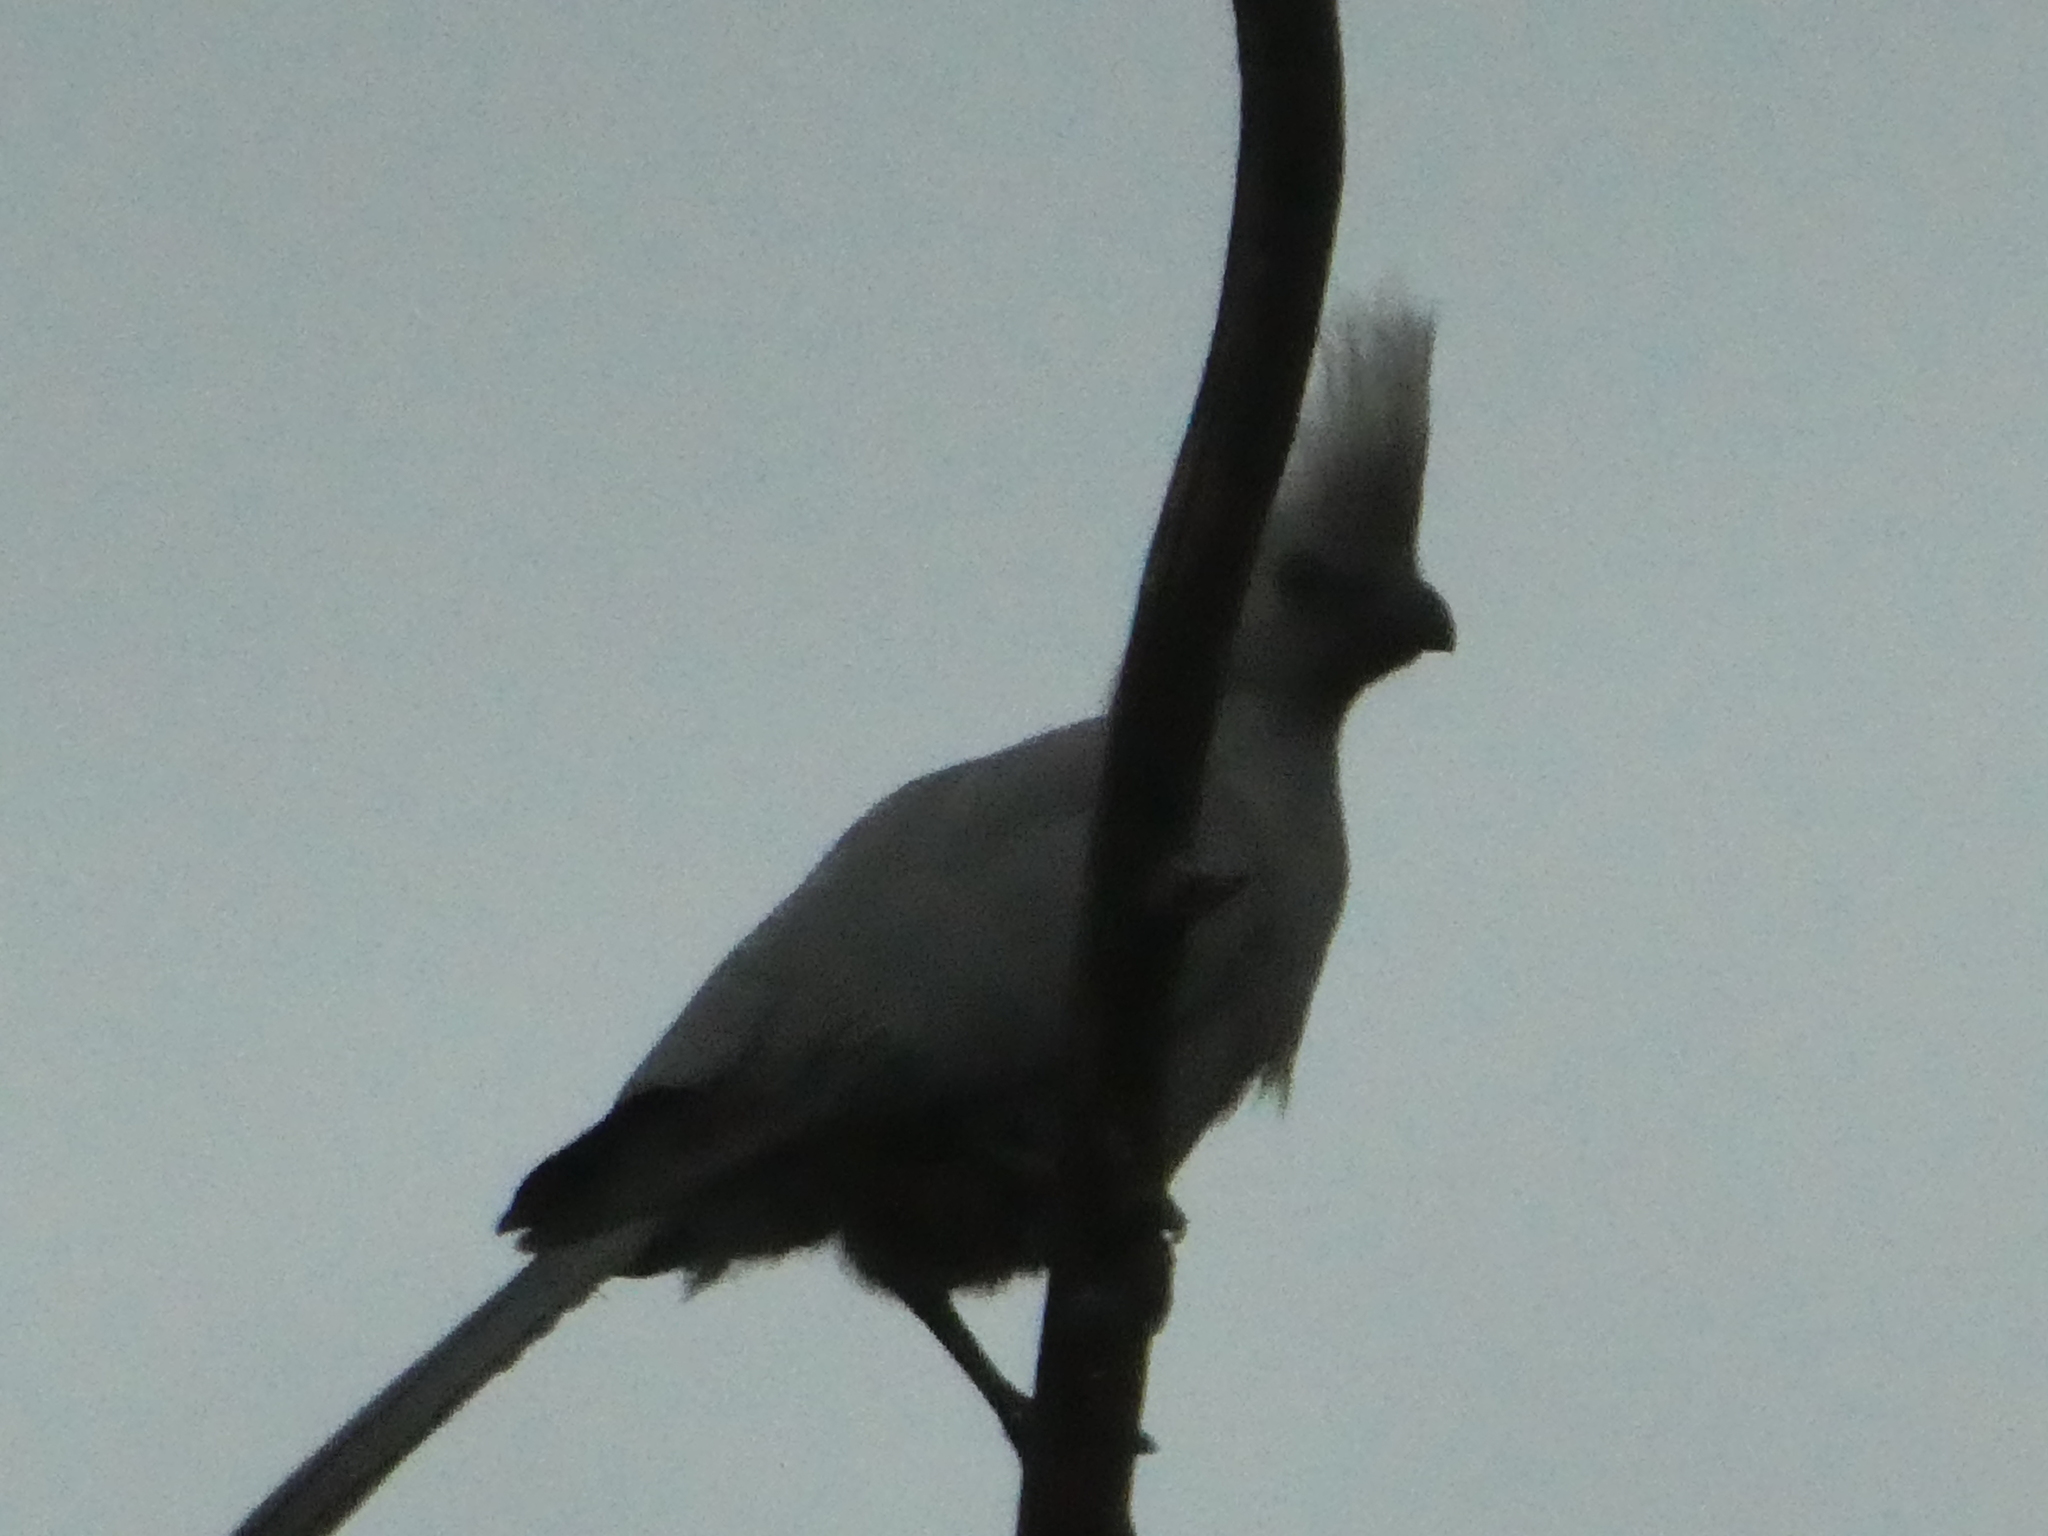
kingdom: Animalia
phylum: Chordata
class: Aves
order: Musophagiformes
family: Musophagidae
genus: Corythaixoides
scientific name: Corythaixoides concolor
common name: Grey go-away-bird
